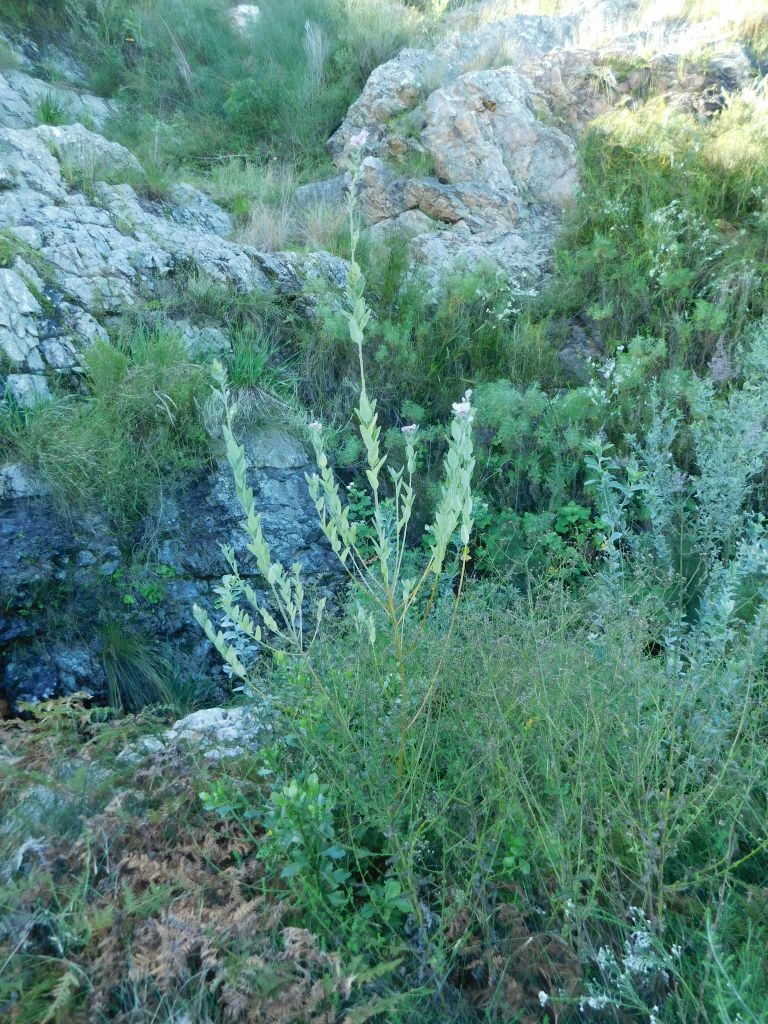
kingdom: Plantae
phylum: Tracheophyta
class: Magnoliopsida
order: Fabales
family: Fabaceae
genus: Podalyria
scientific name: Podalyria calyptrata
